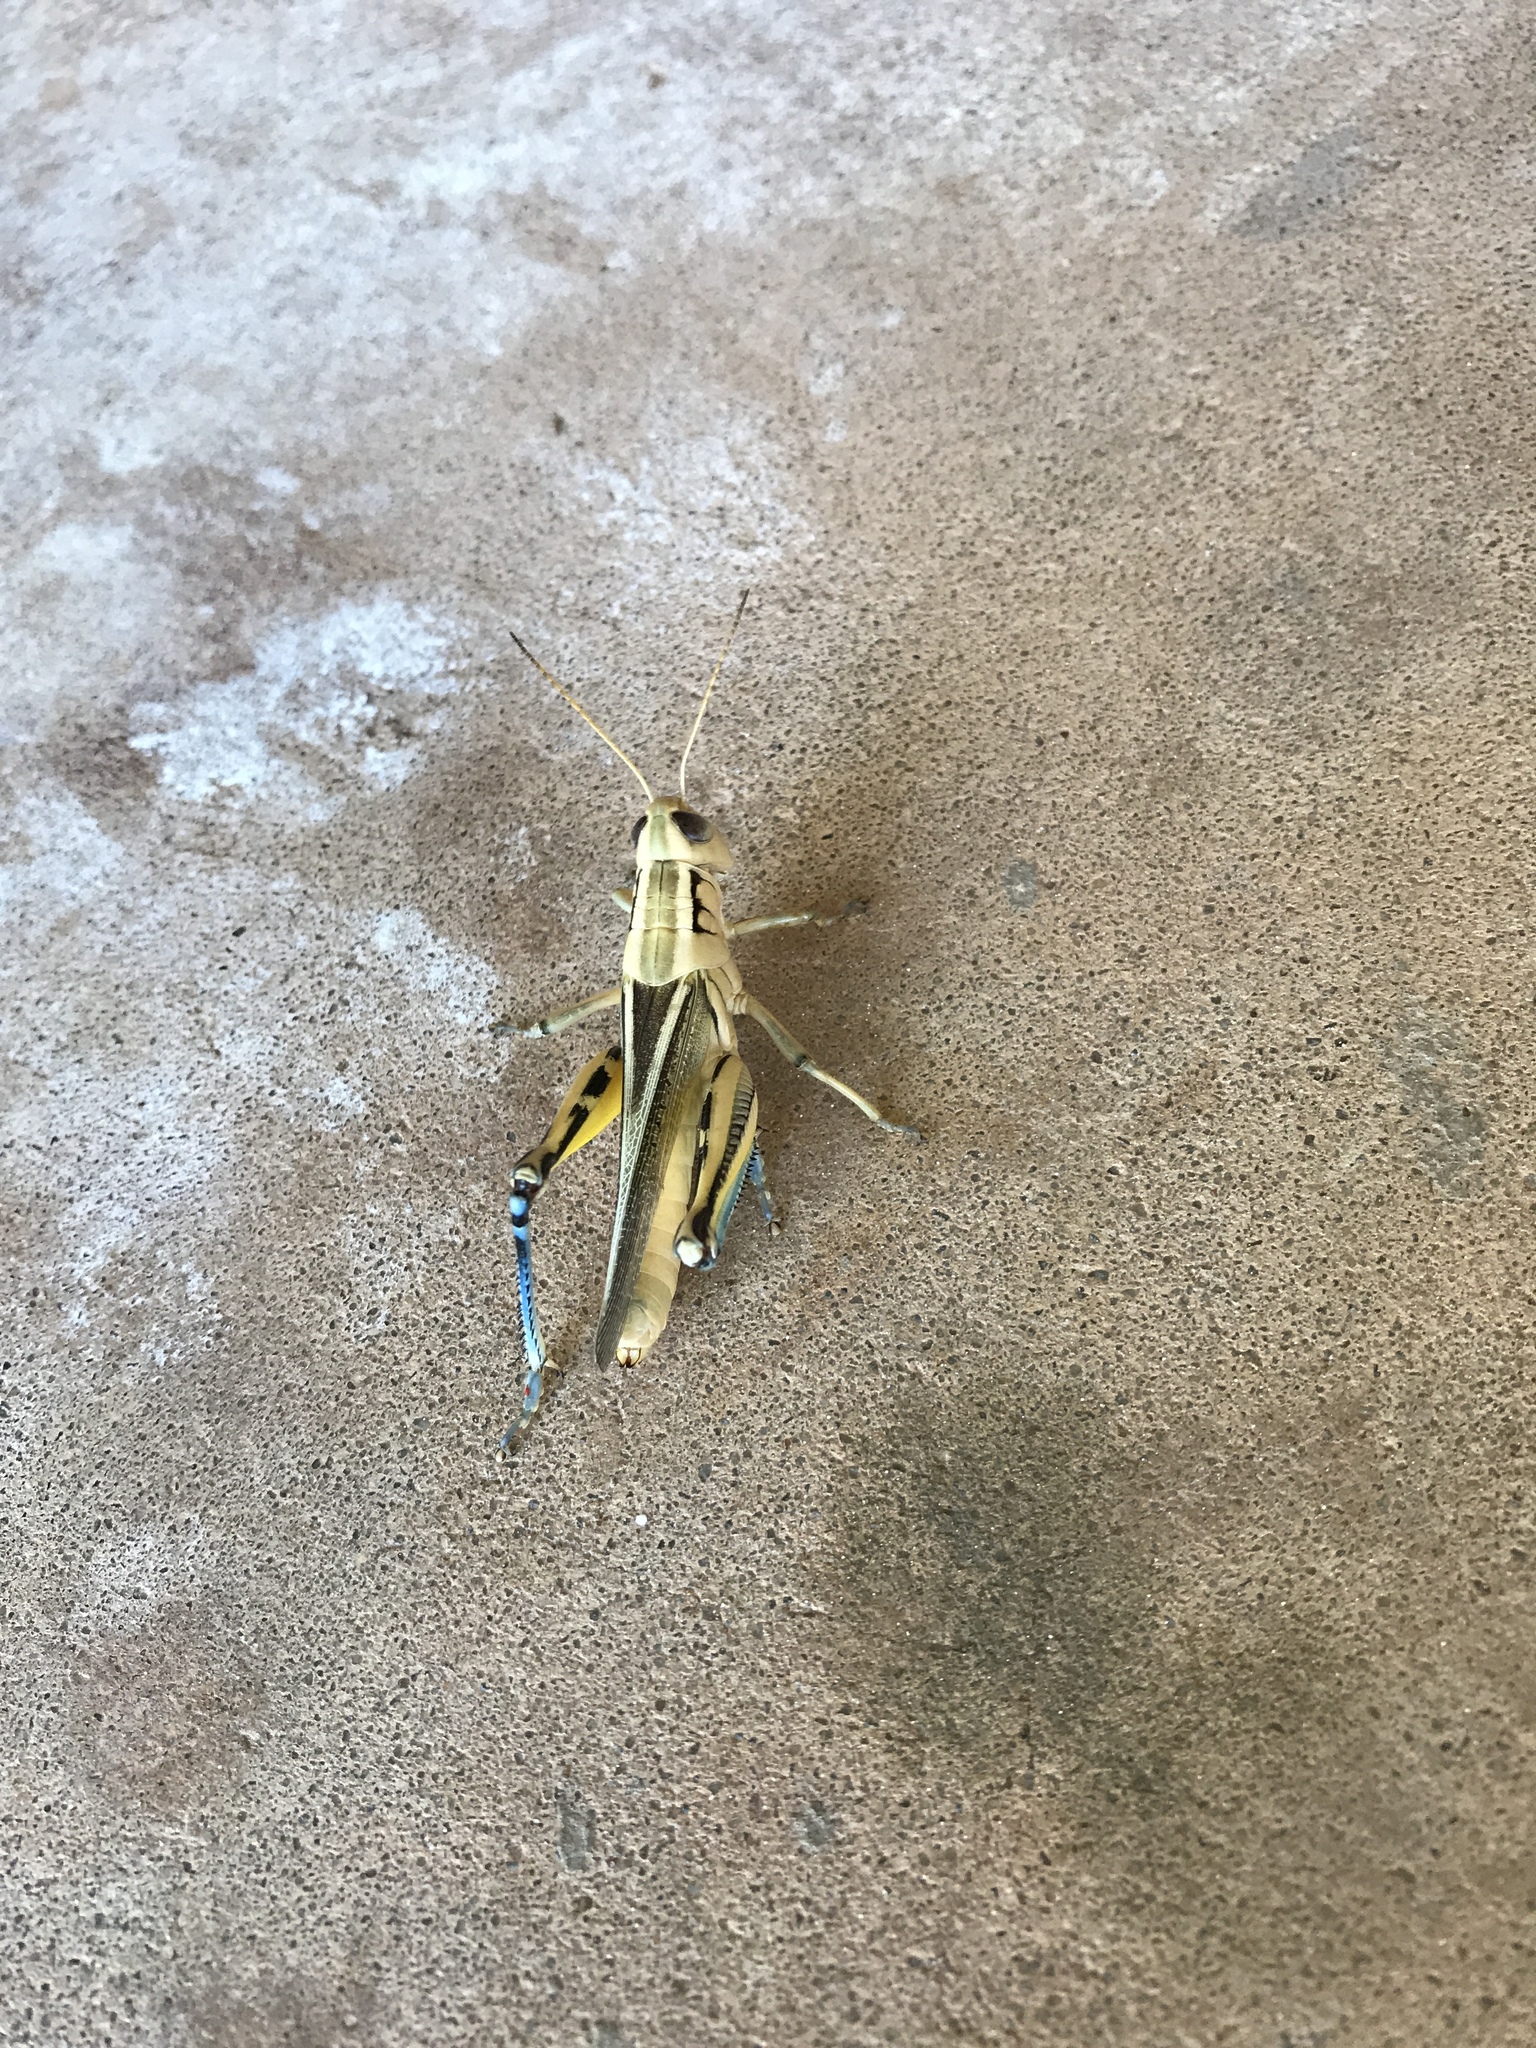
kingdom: Animalia
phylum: Arthropoda
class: Insecta
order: Orthoptera
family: Acrididae
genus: Melanoplus
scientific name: Melanoplus bivittatus
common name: Two-striped grasshopper
